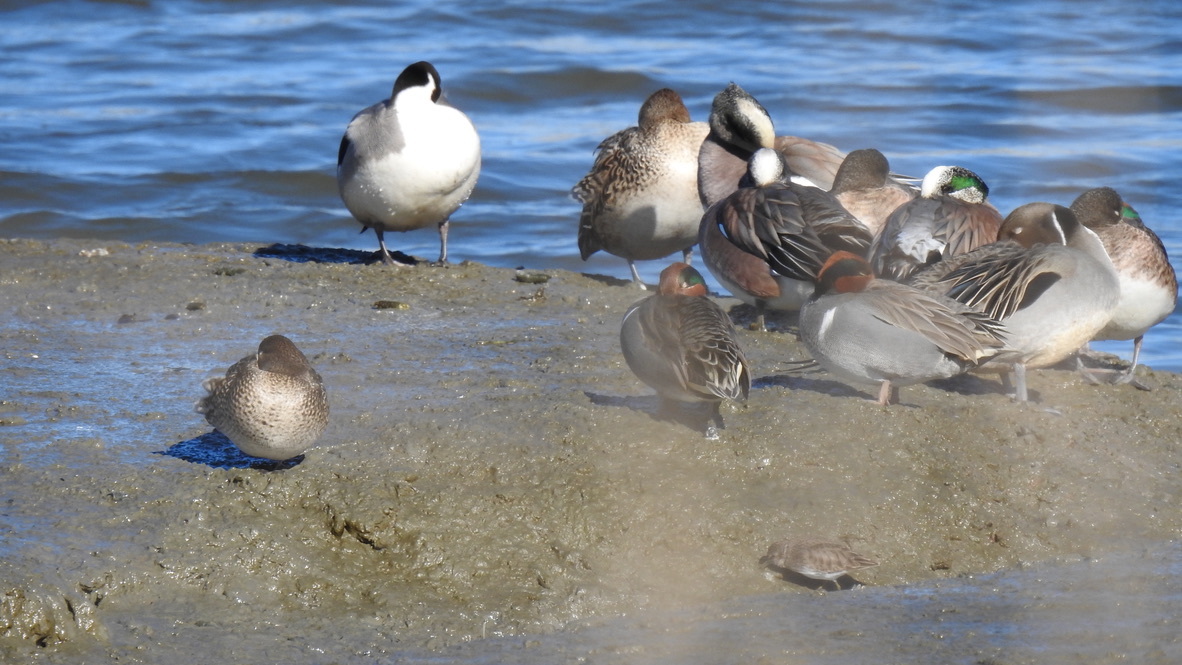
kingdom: Animalia
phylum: Chordata
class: Aves
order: Anseriformes
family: Anatidae
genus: Anas
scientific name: Anas acuta
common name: Northern pintail
